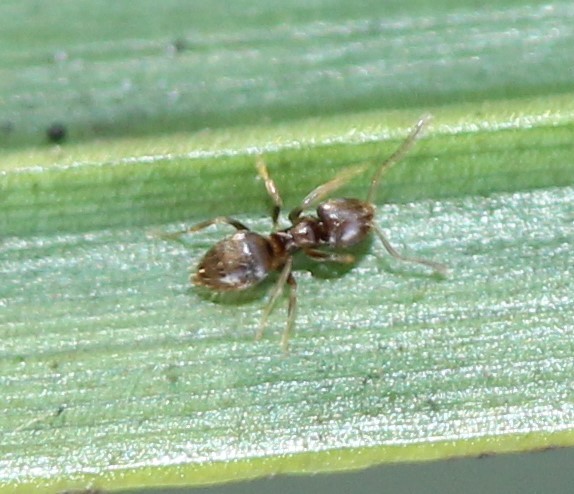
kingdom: Animalia
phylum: Arthropoda
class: Insecta
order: Hymenoptera
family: Formicidae
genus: Brachymyrmex
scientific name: Brachymyrmex obscurior
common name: Obscure rover ant
